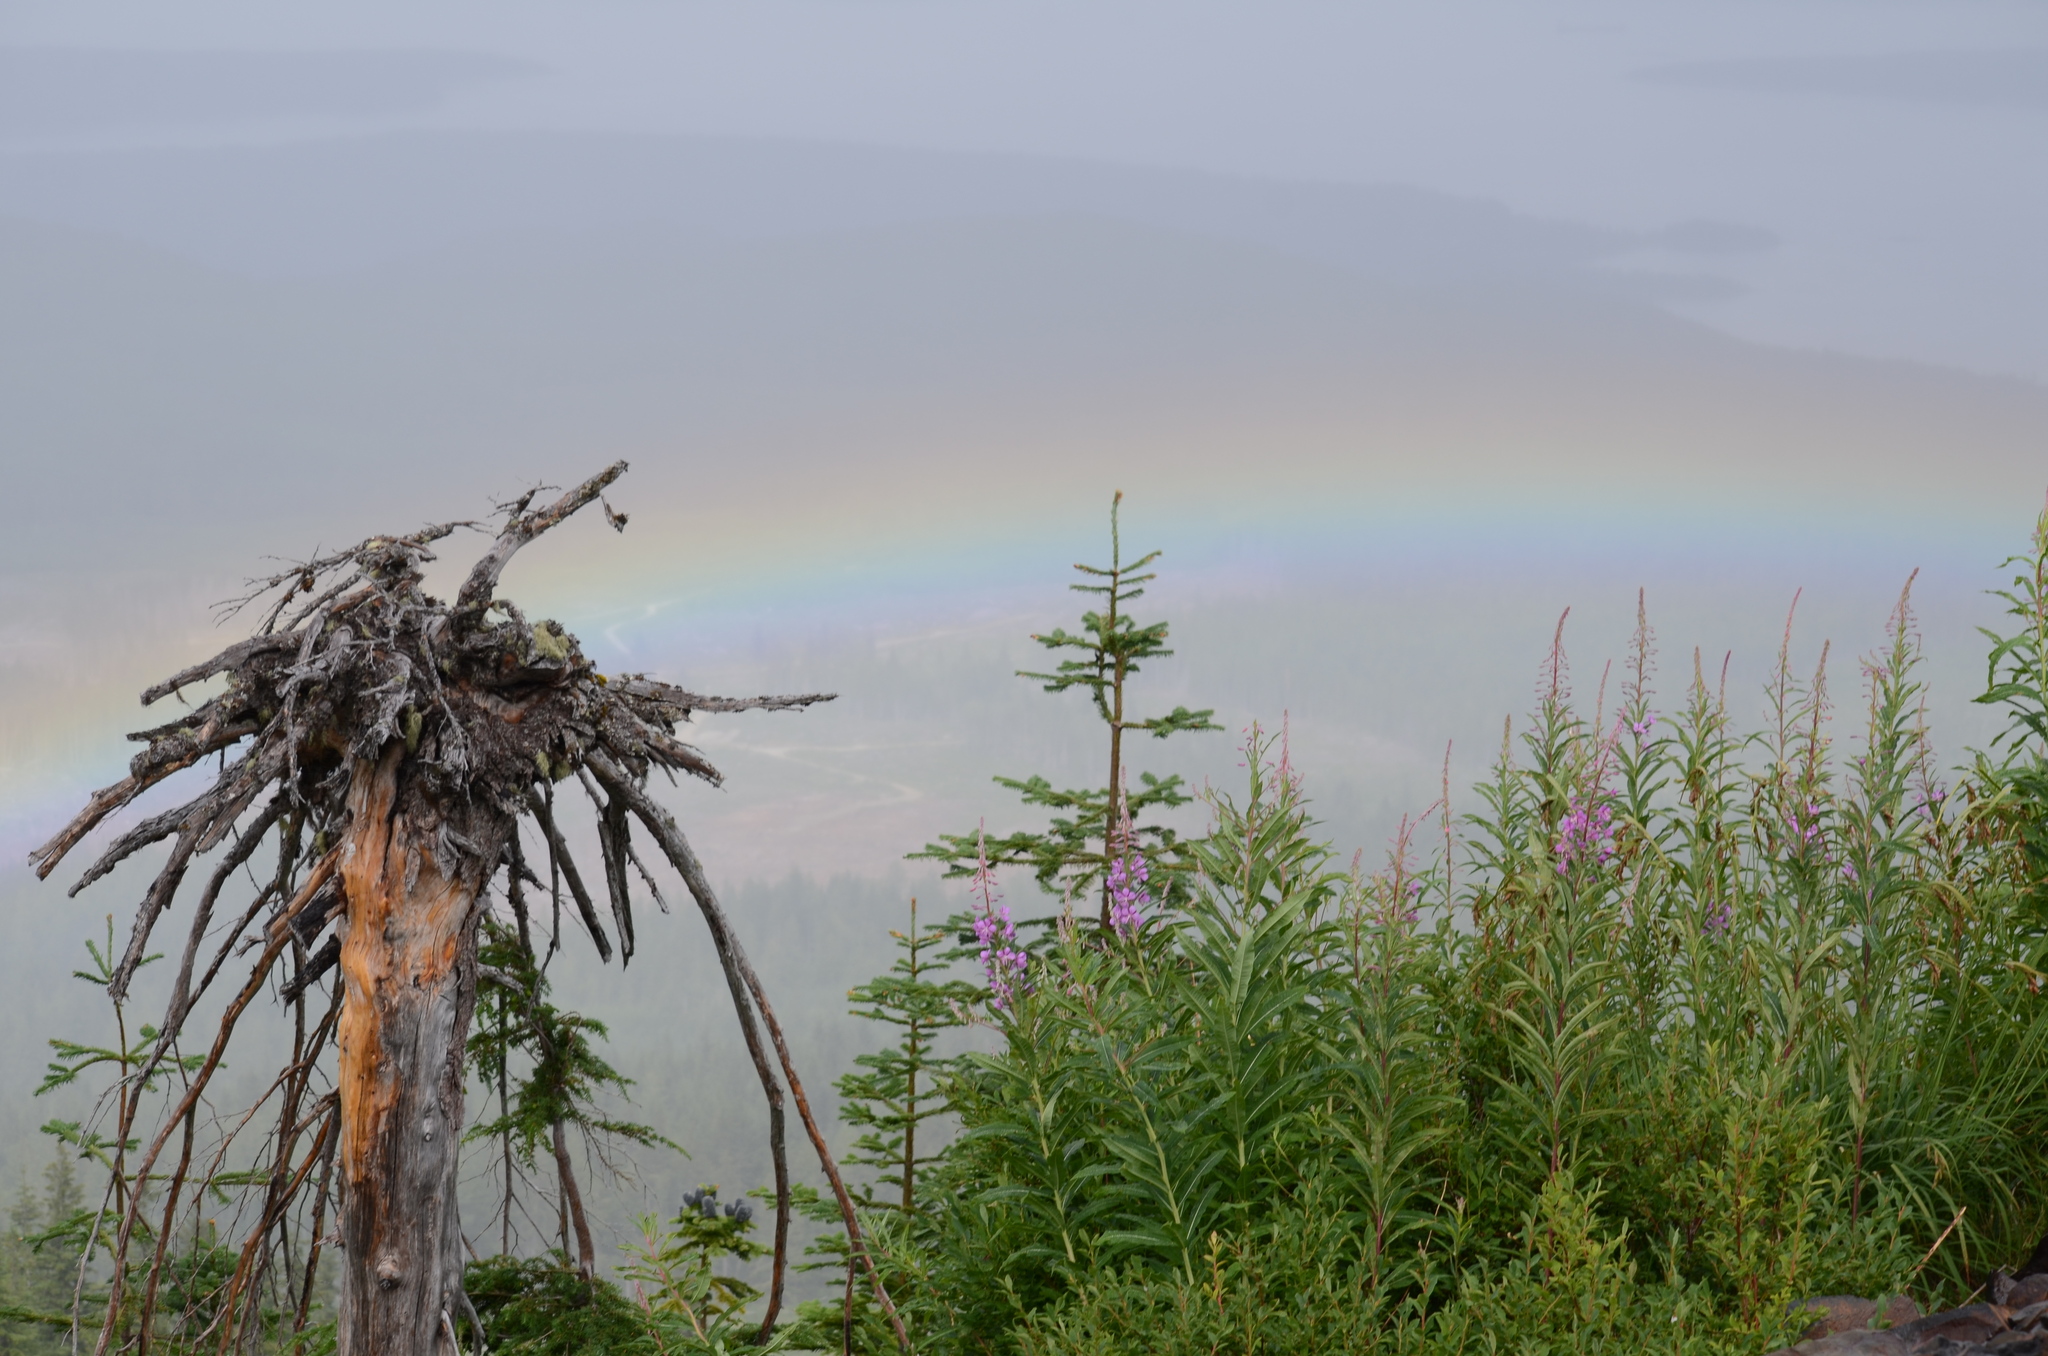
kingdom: Plantae
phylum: Tracheophyta
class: Magnoliopsida
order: Myrtales
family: Onagraceae
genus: Chamaenerion
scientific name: Chamaenerion angustifolium
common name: Fireweed
